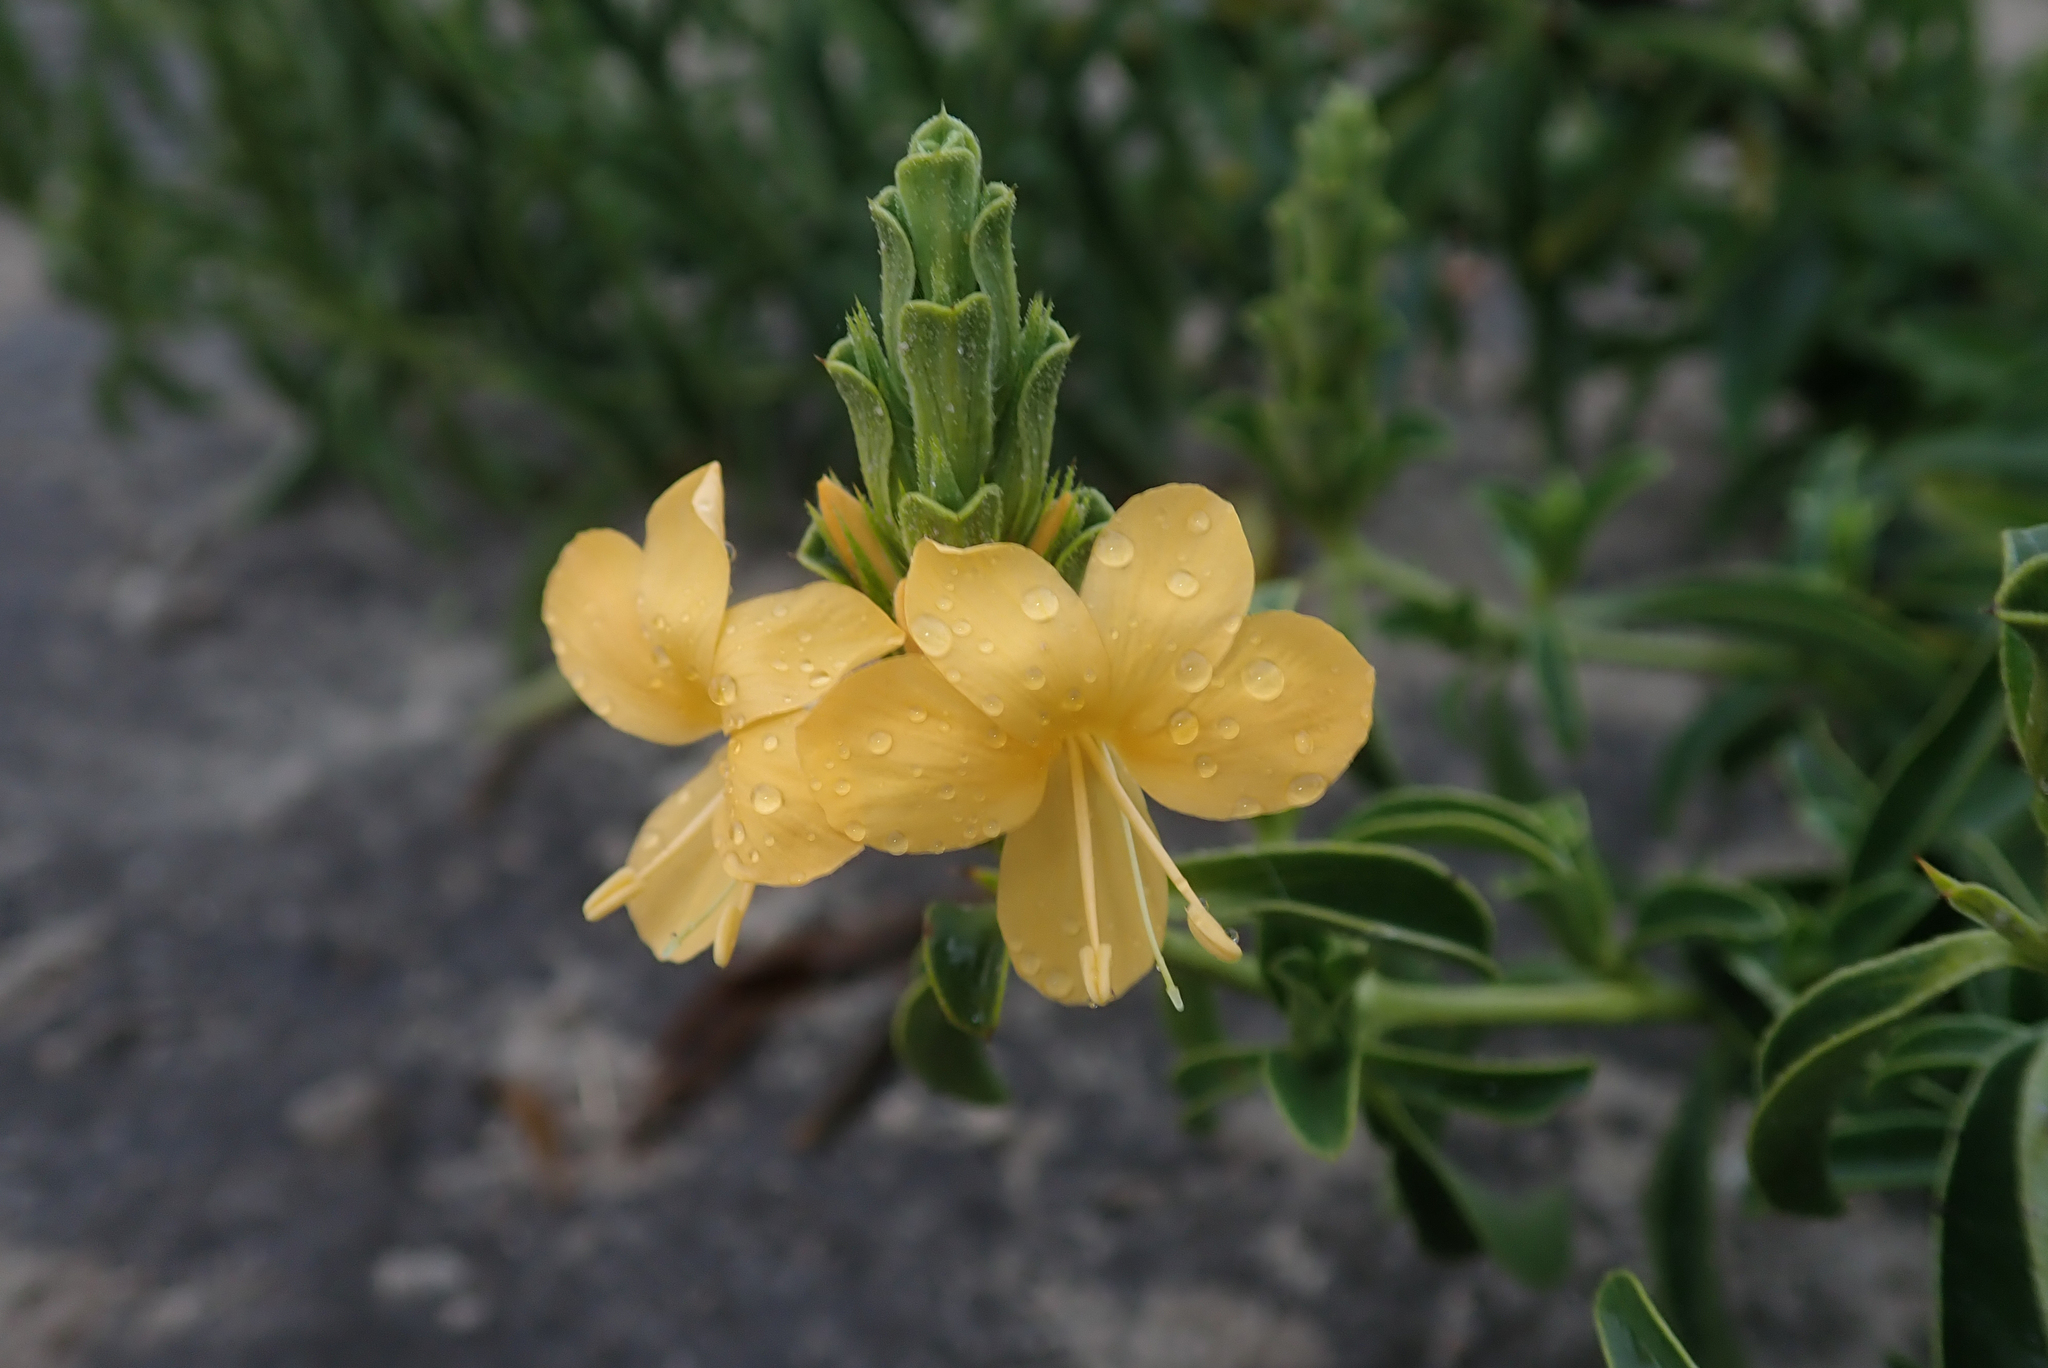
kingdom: Plantae
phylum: Tracheophyta
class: Magnoliopsida
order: Lamiales
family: Acanthaceae
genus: Barleria
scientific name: Barleria senensis
